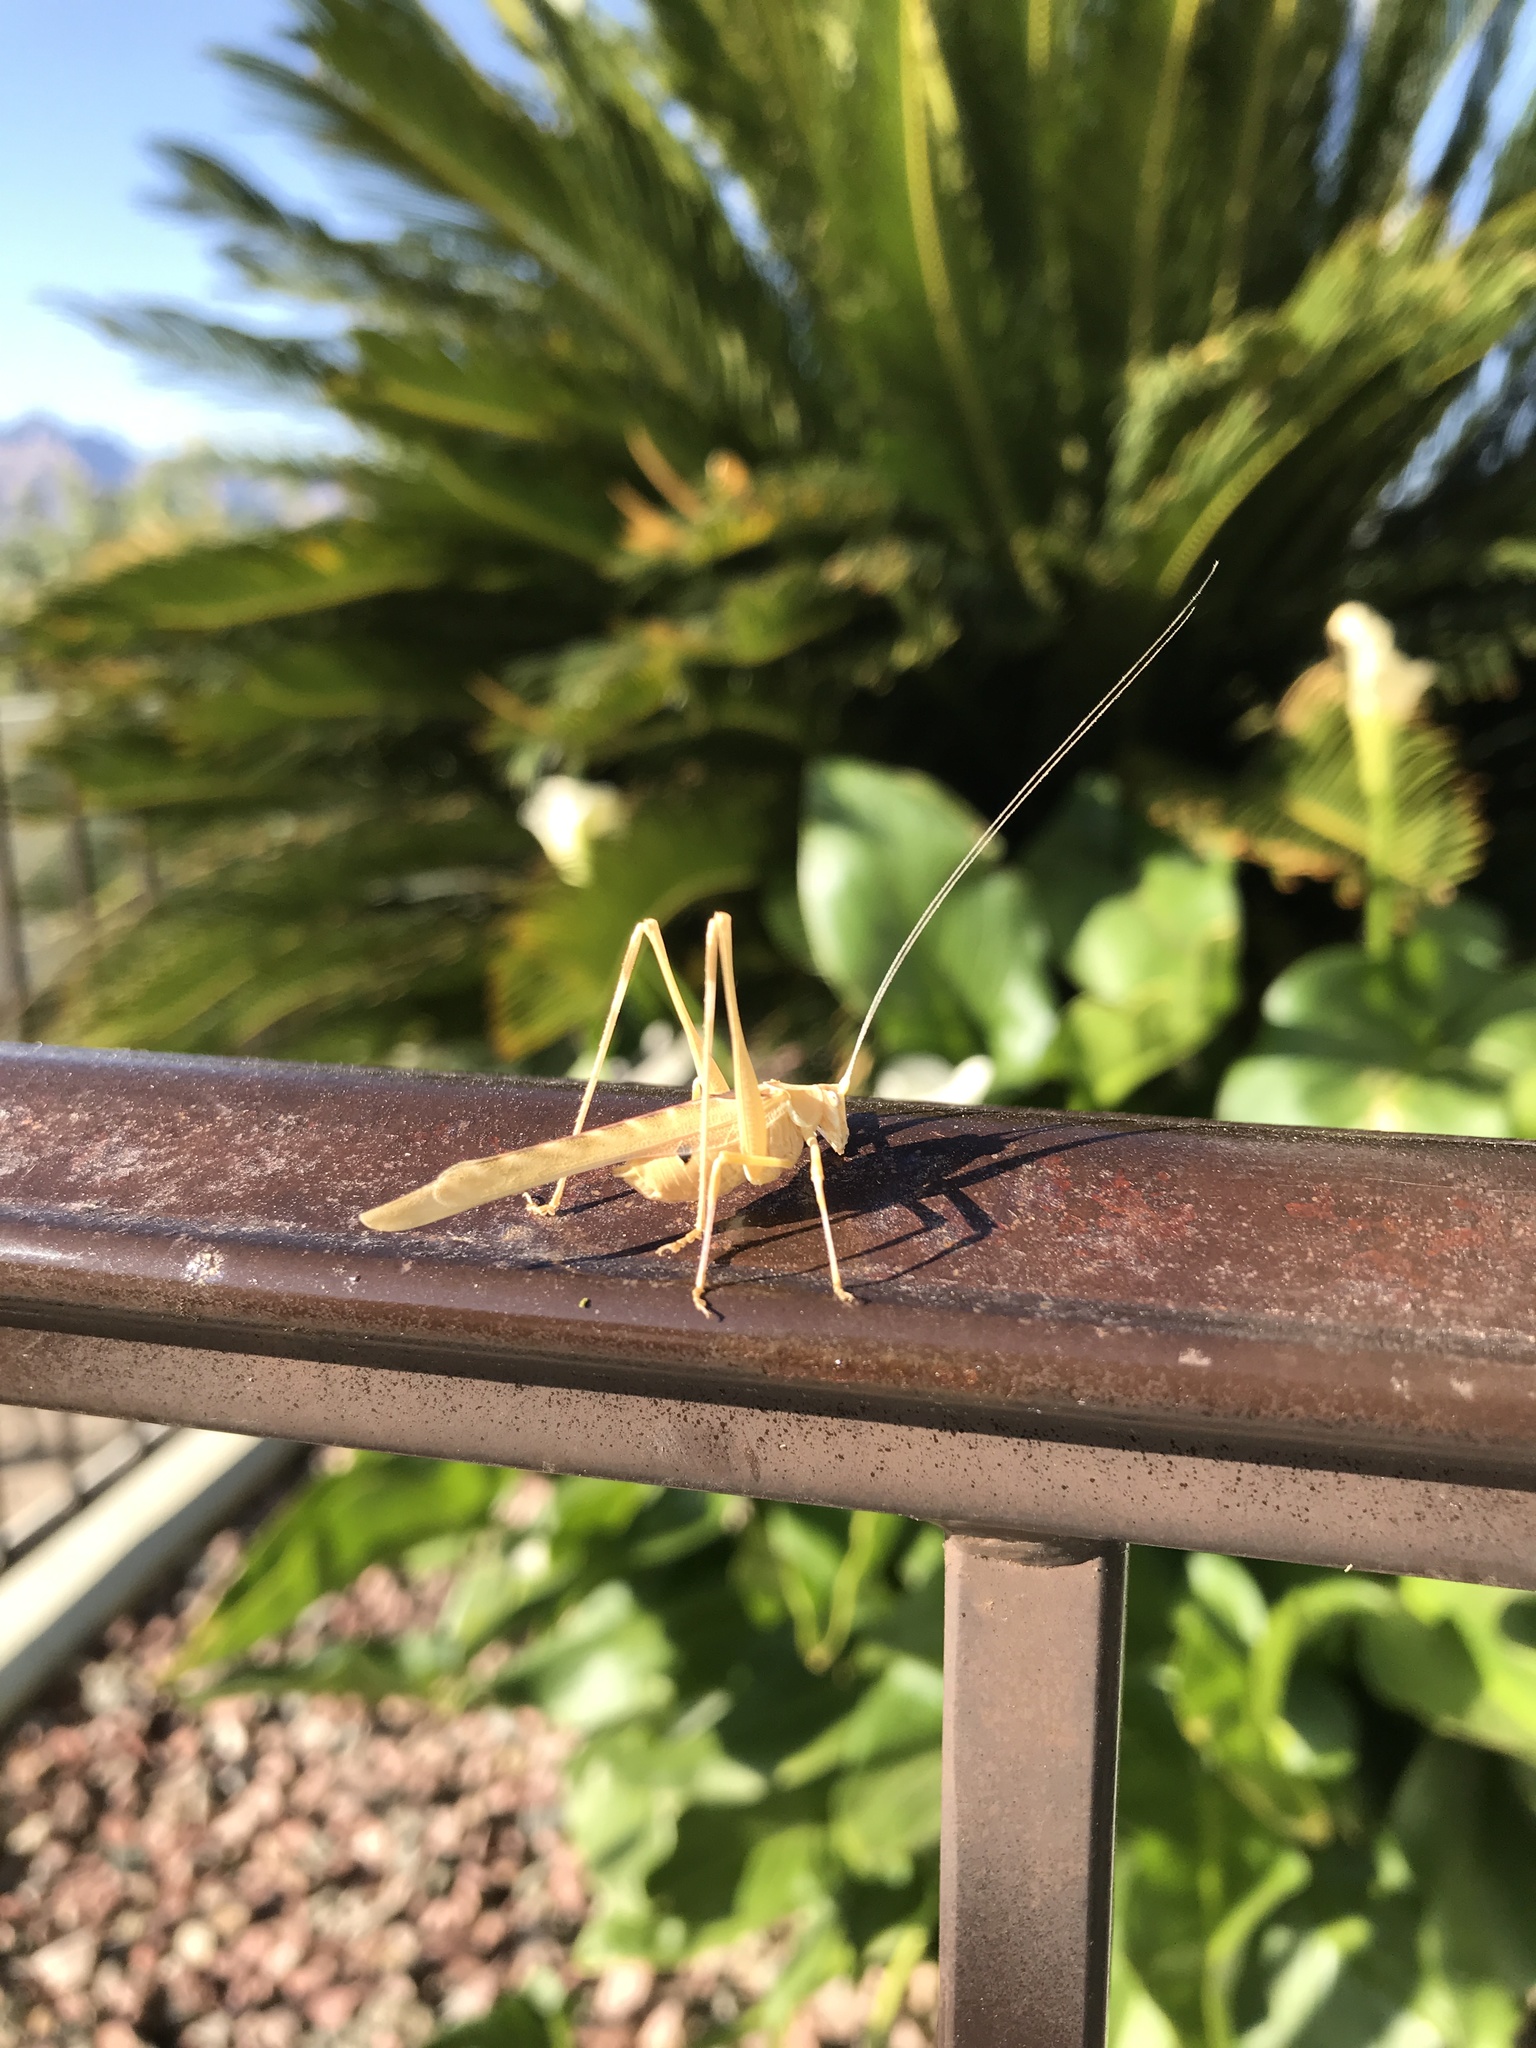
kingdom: Animalia
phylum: Arthropoda
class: Insecta
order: Orthoptera
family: Tettigoniidae
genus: Insara
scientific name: Insara elegans
